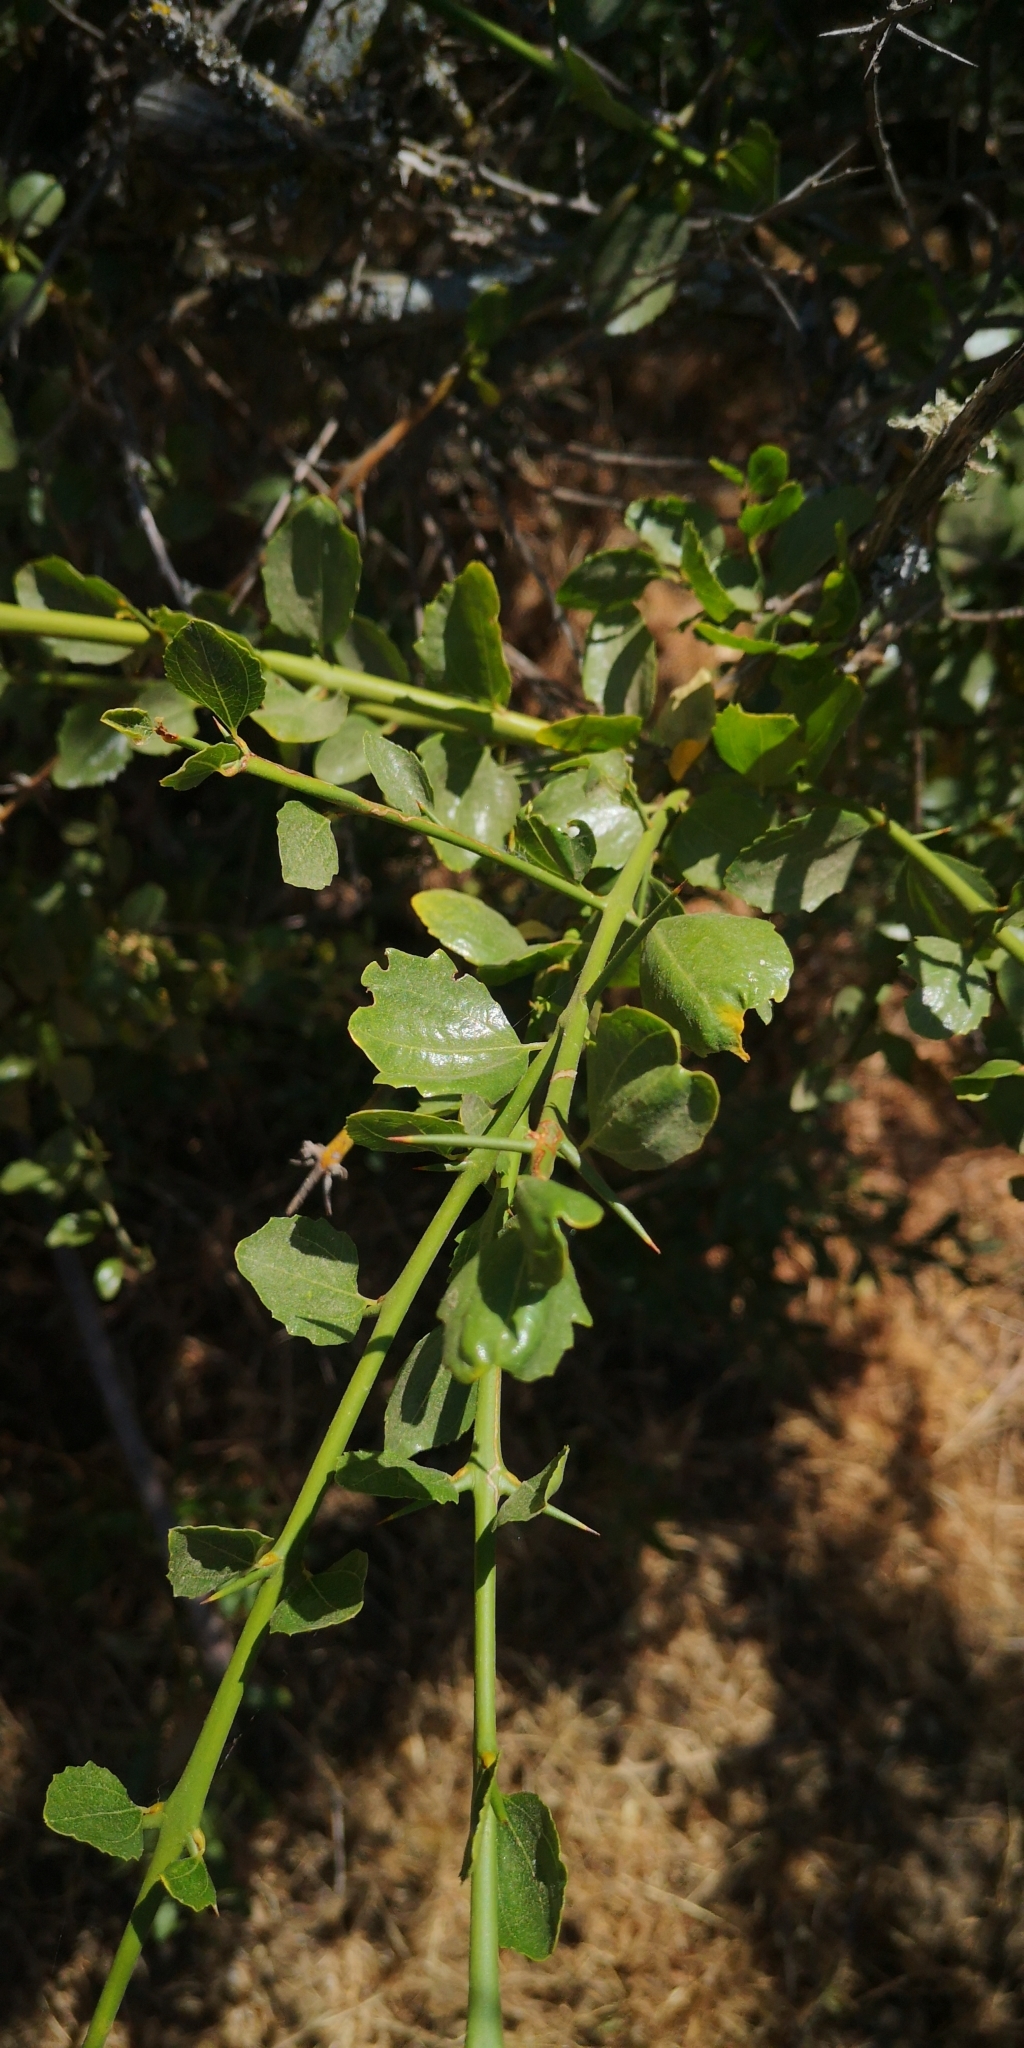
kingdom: Plantae
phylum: Tracheophyta
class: Magnoliopsida
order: Rosales
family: Rhamnaceae
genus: Retanilla
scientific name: Retanilla trinervia
